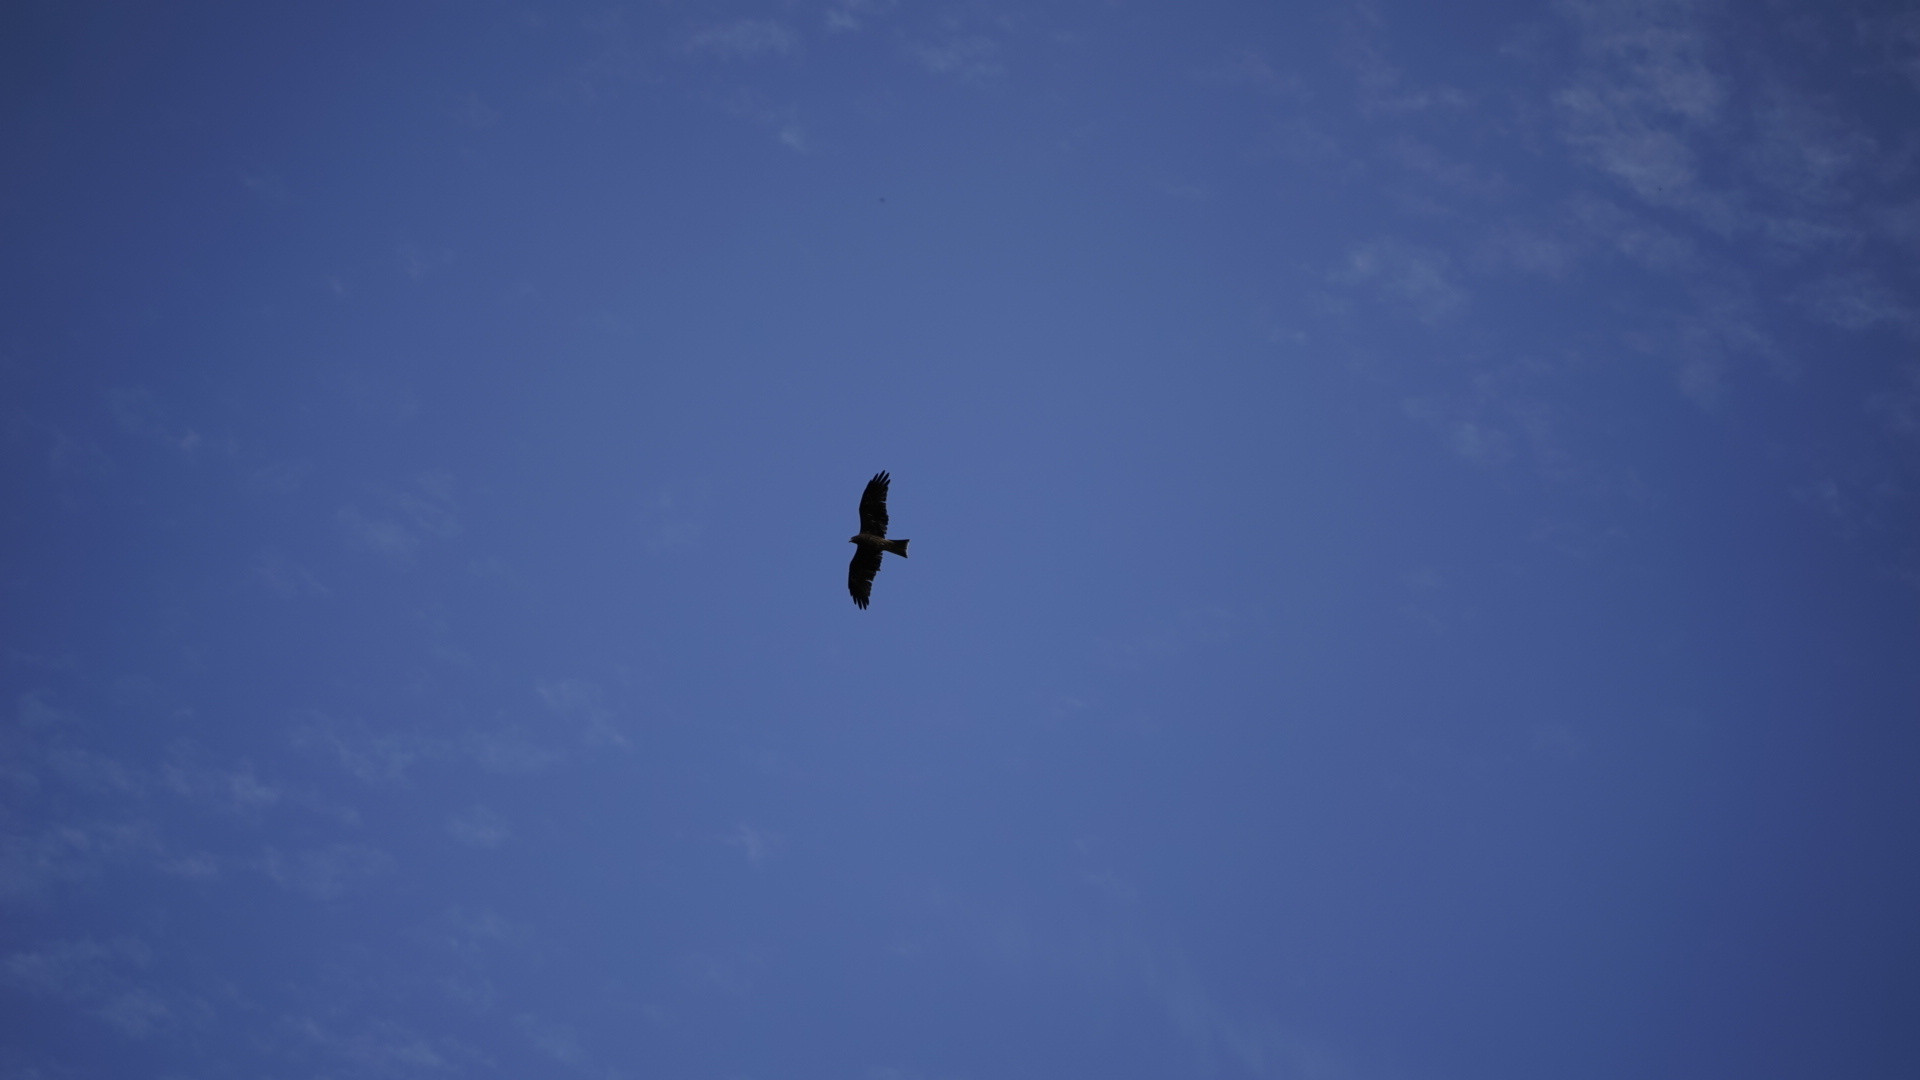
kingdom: Animalia
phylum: Chordata
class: Aves
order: Accipitriformes
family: Accipitridae
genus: Milvus
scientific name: Milvus migrans
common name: Black kite
